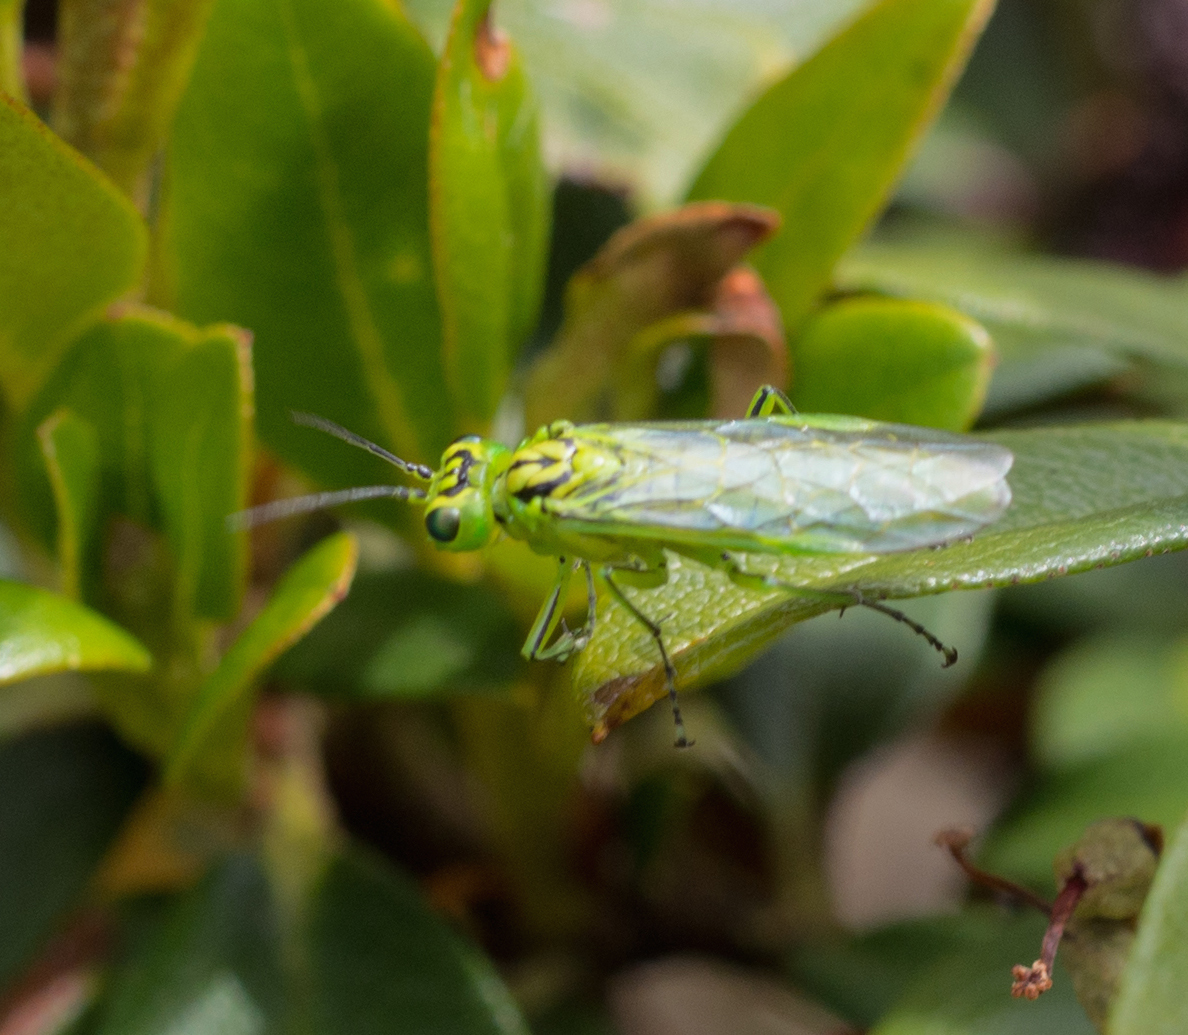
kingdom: Animalia
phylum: Arthropoda
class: Insecta
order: Hymenoptera
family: Tenthredinidae
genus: Rhogogaster
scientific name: Rhogogaster punctulata
